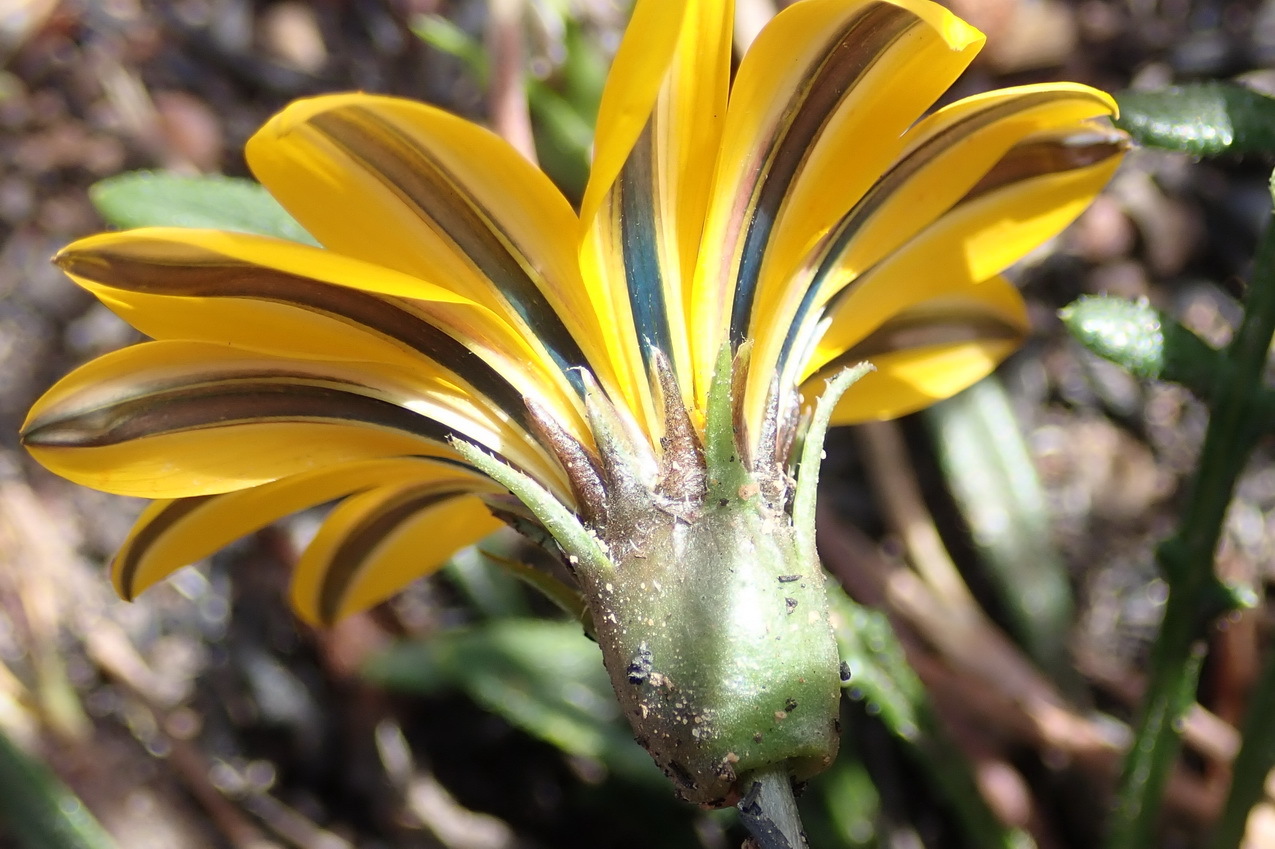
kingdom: Plantae
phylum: Tracheophyta
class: Magnoliopsida
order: Asterales
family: Asteraceae
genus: Gazania
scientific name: Gazania linearis
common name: Treasureflower
